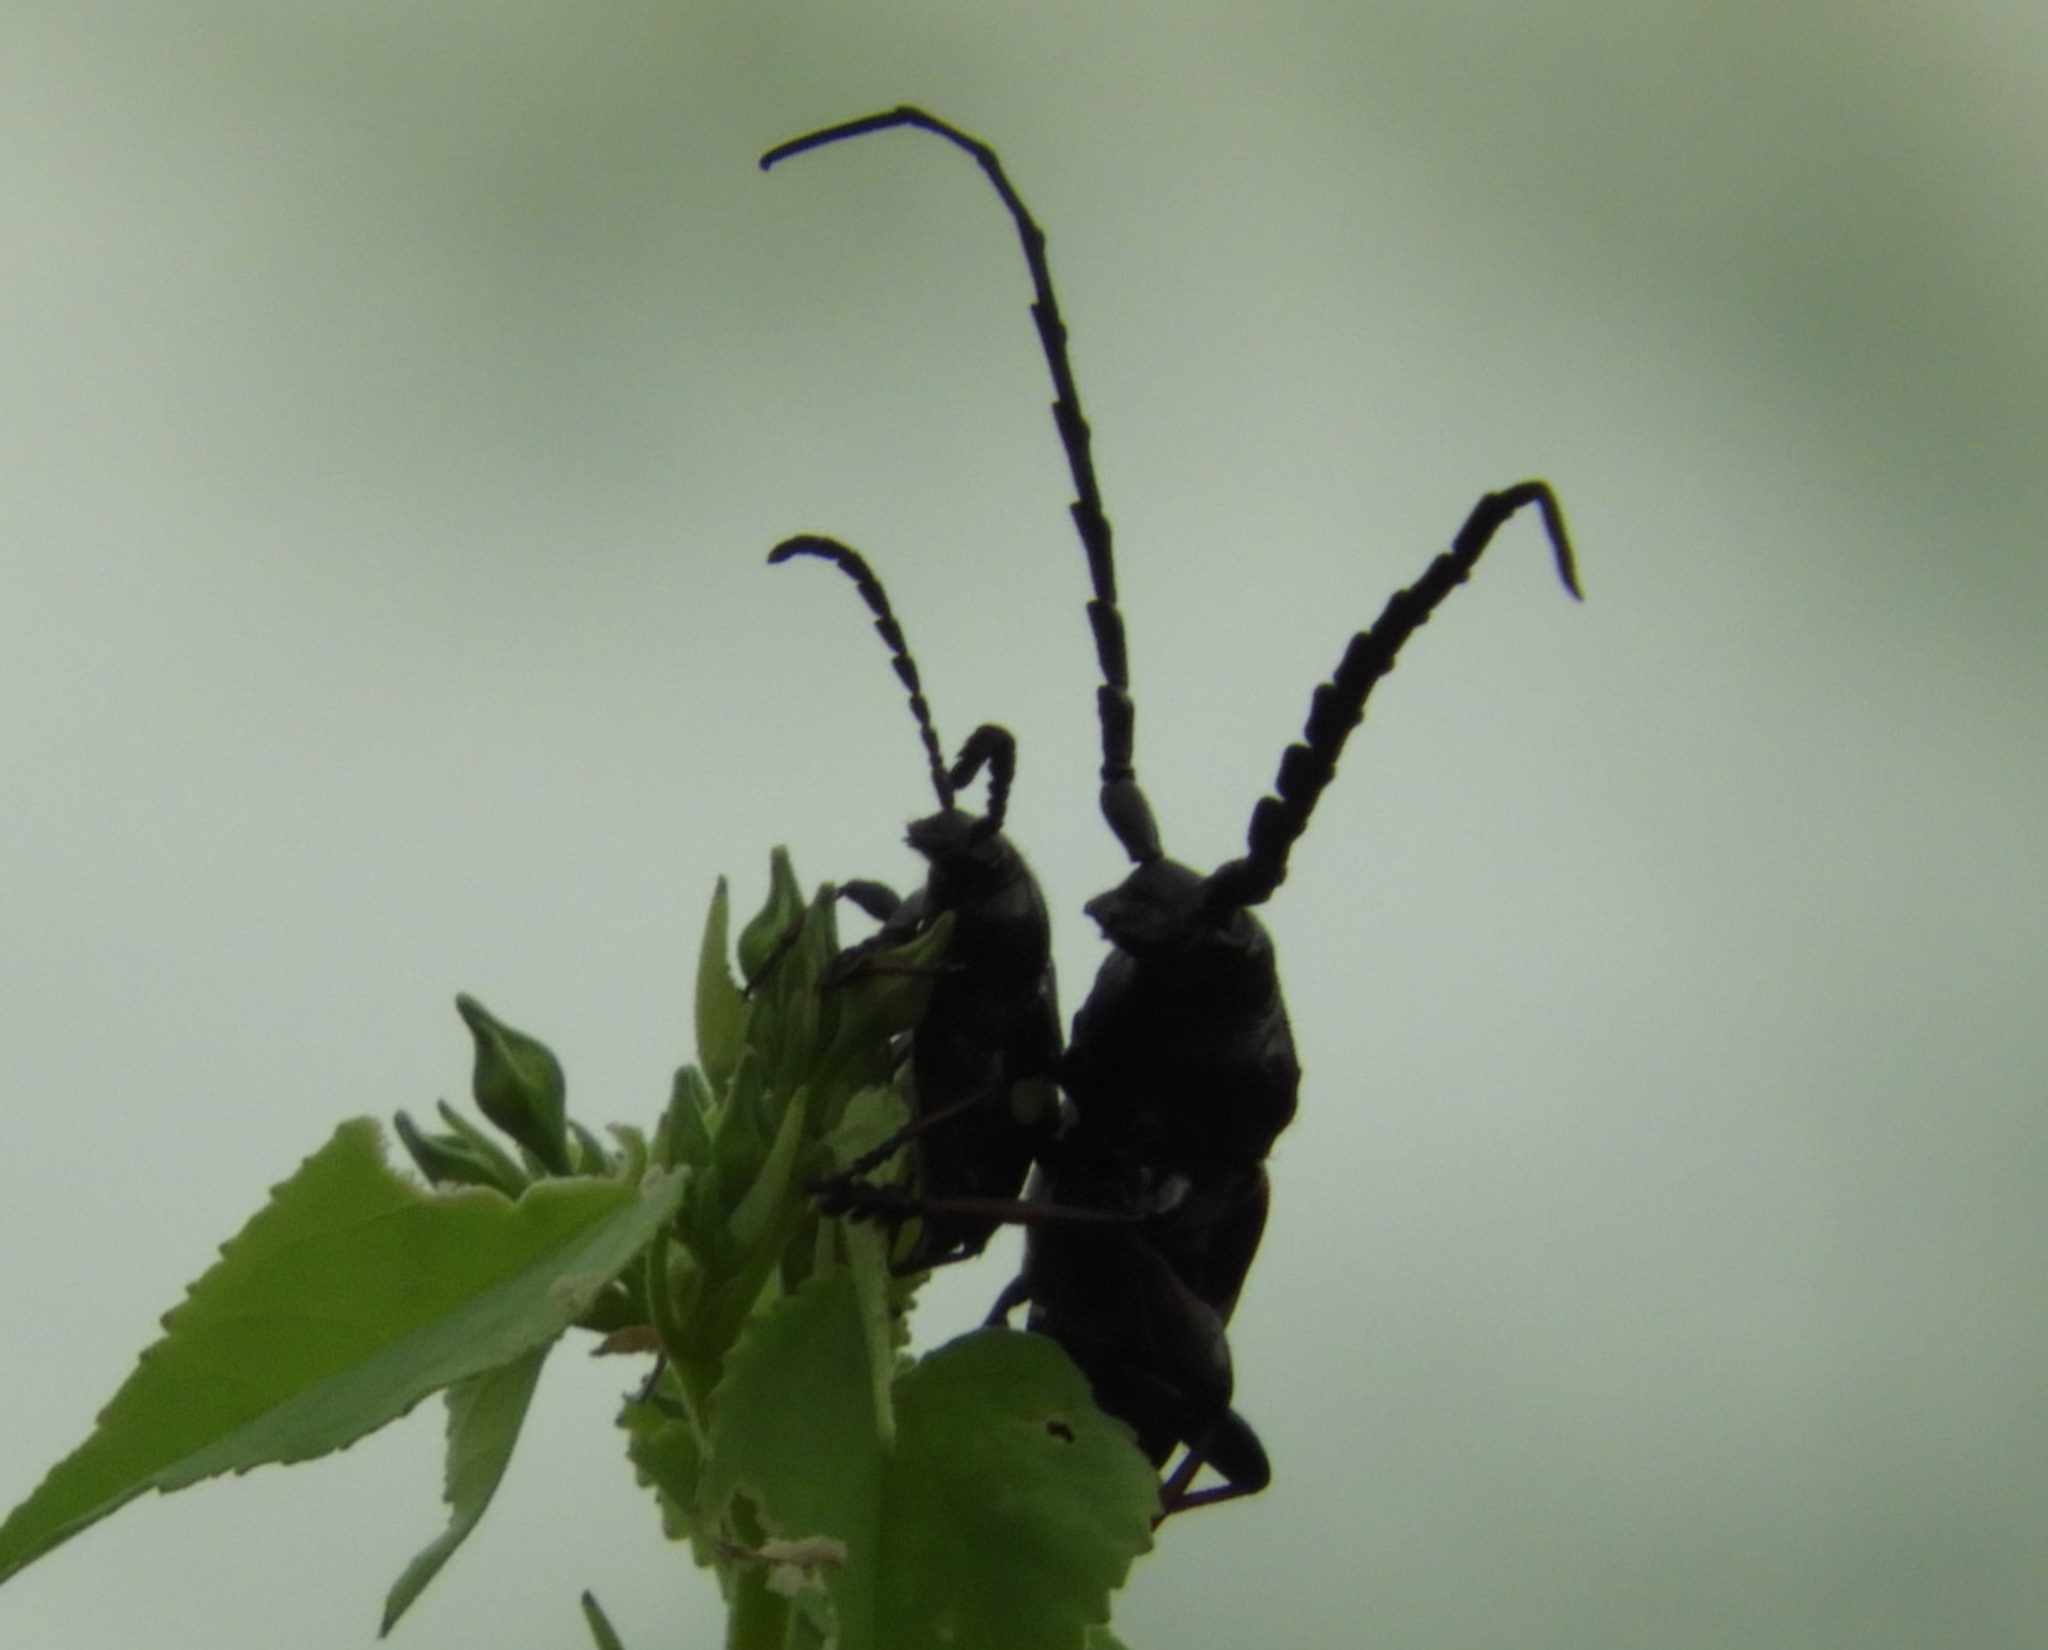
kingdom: Animalia
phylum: Arthropoda
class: Insecta
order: Coleoptera
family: Cerambycidae
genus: Lissonotus
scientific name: Lissonotus flavocinctus
